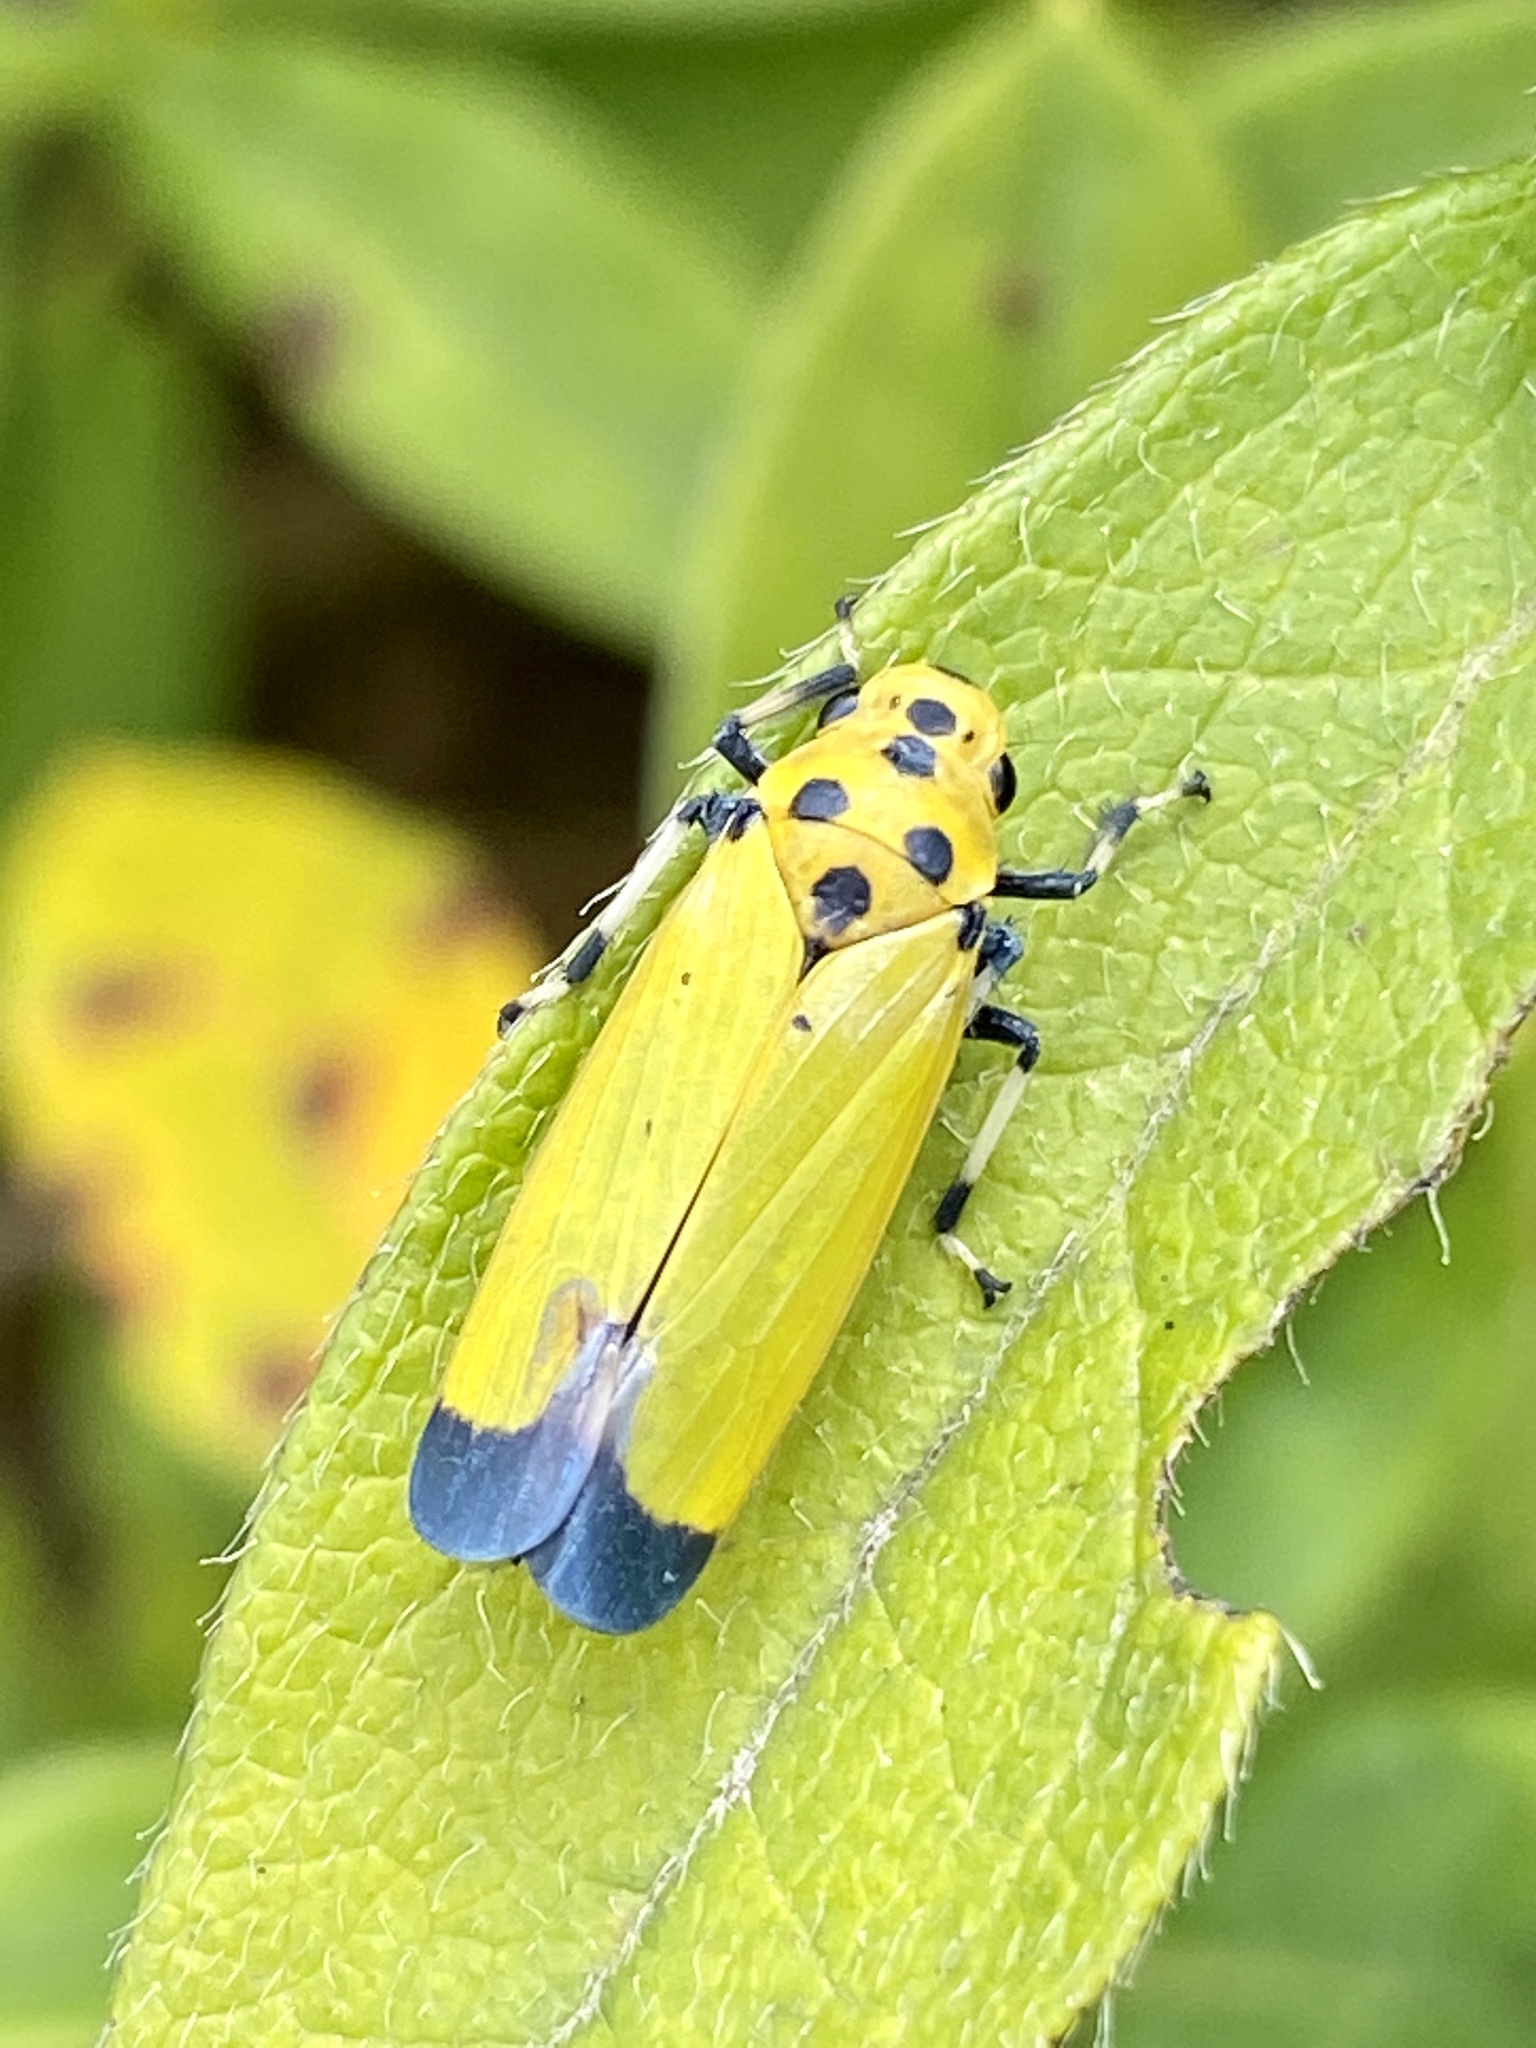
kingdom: Animalia
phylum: Arthropoda
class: Insecta
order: Hemiptera
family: Cicadellidae
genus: Bothrogonia
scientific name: Bothrogonia ferruginea
